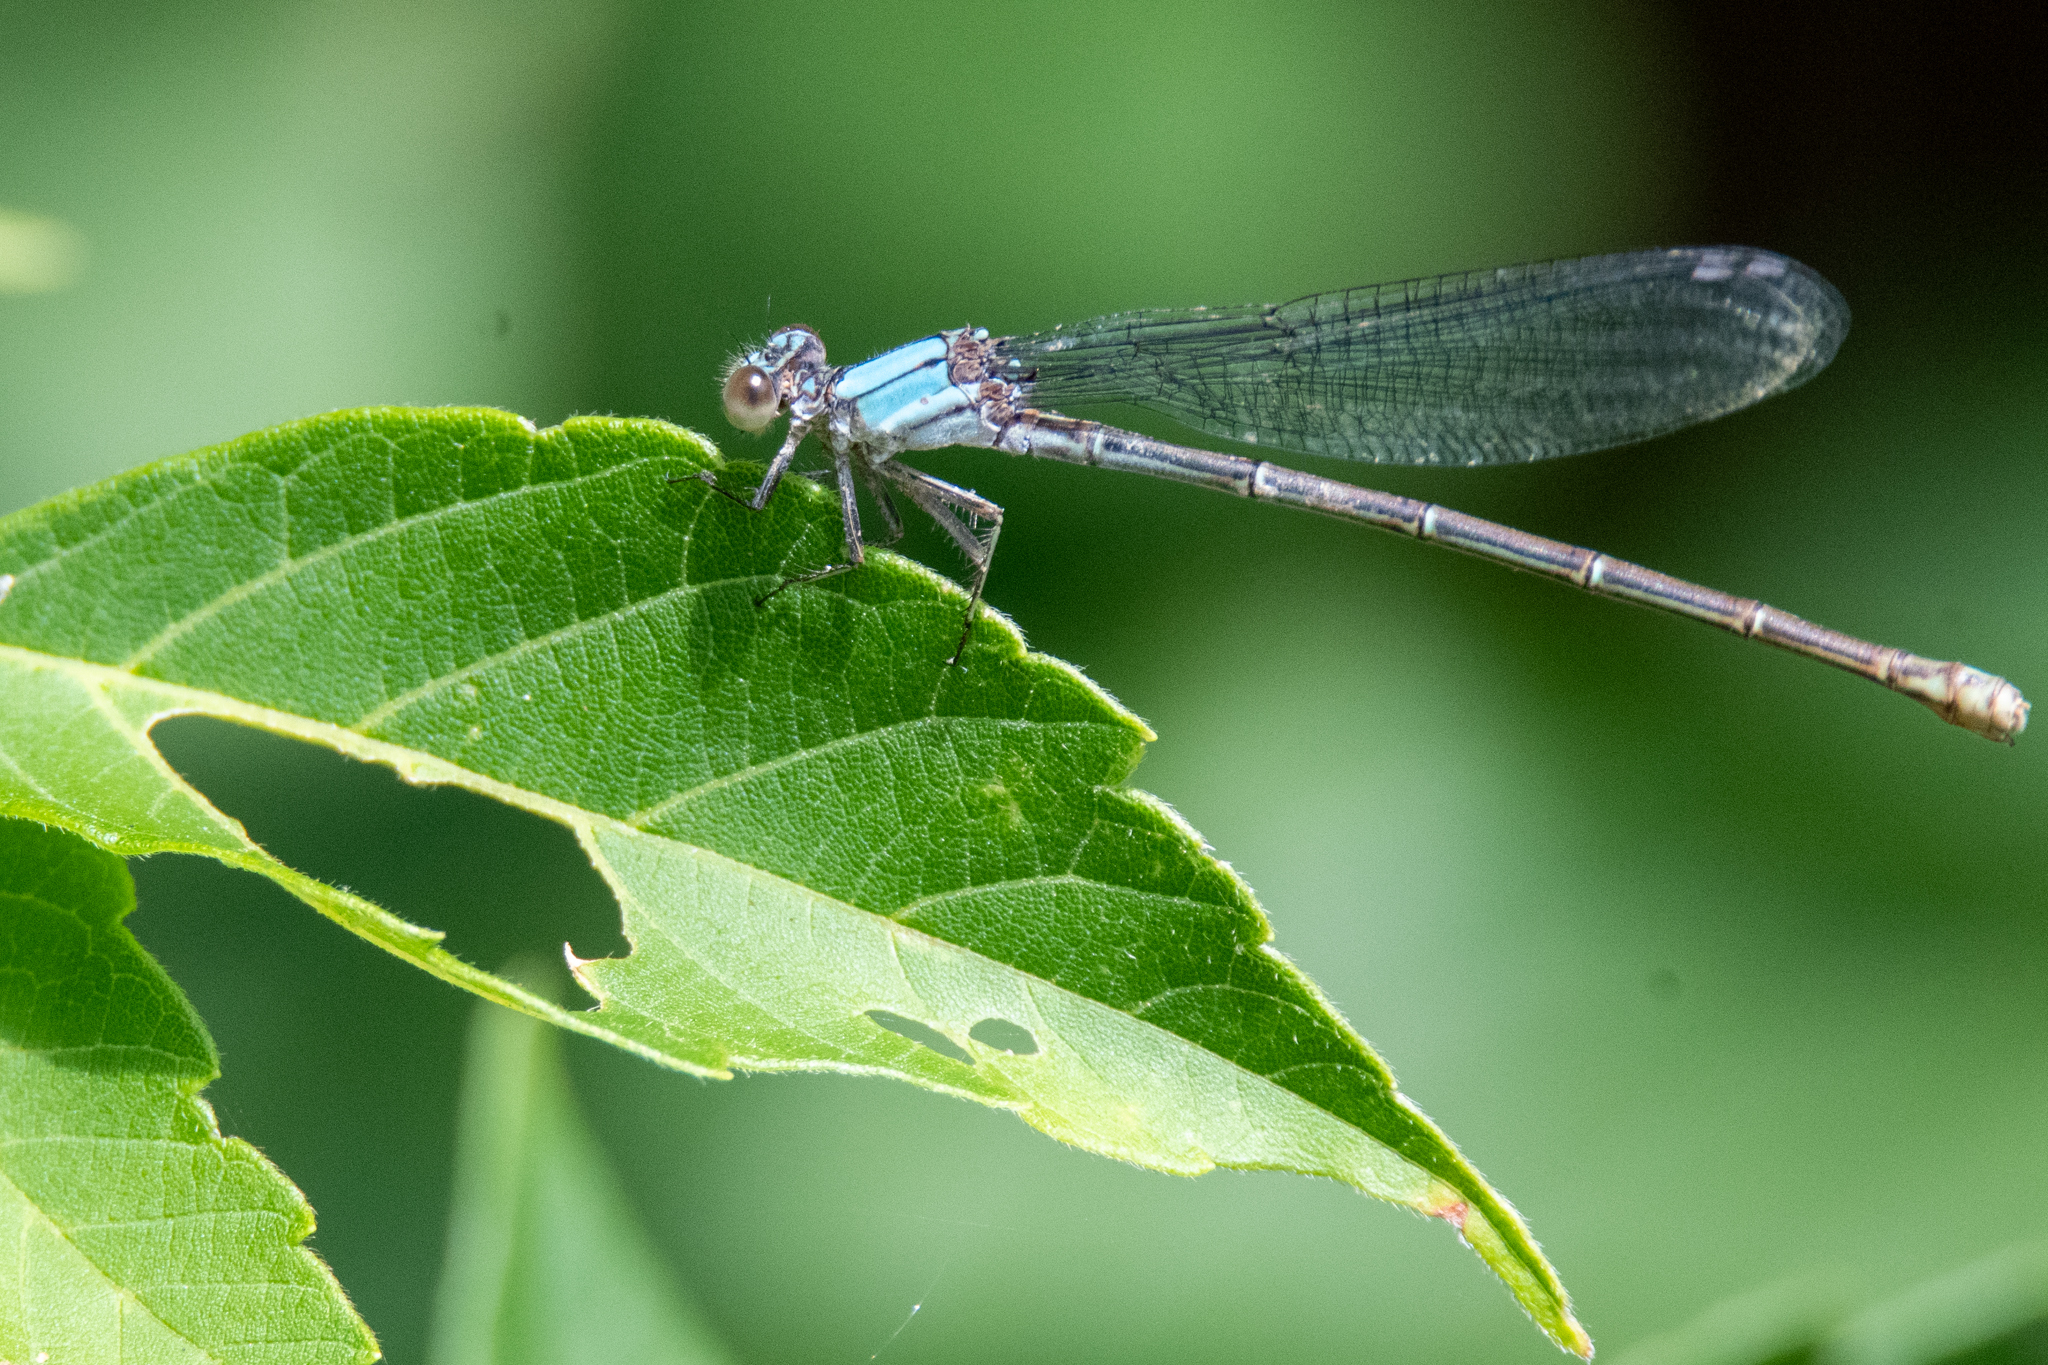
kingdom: Animalia
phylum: Arthropoda
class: Insecta
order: Odonata
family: Coenagrionidae
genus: Argia
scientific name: Argia moesta
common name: Powdered dancer
